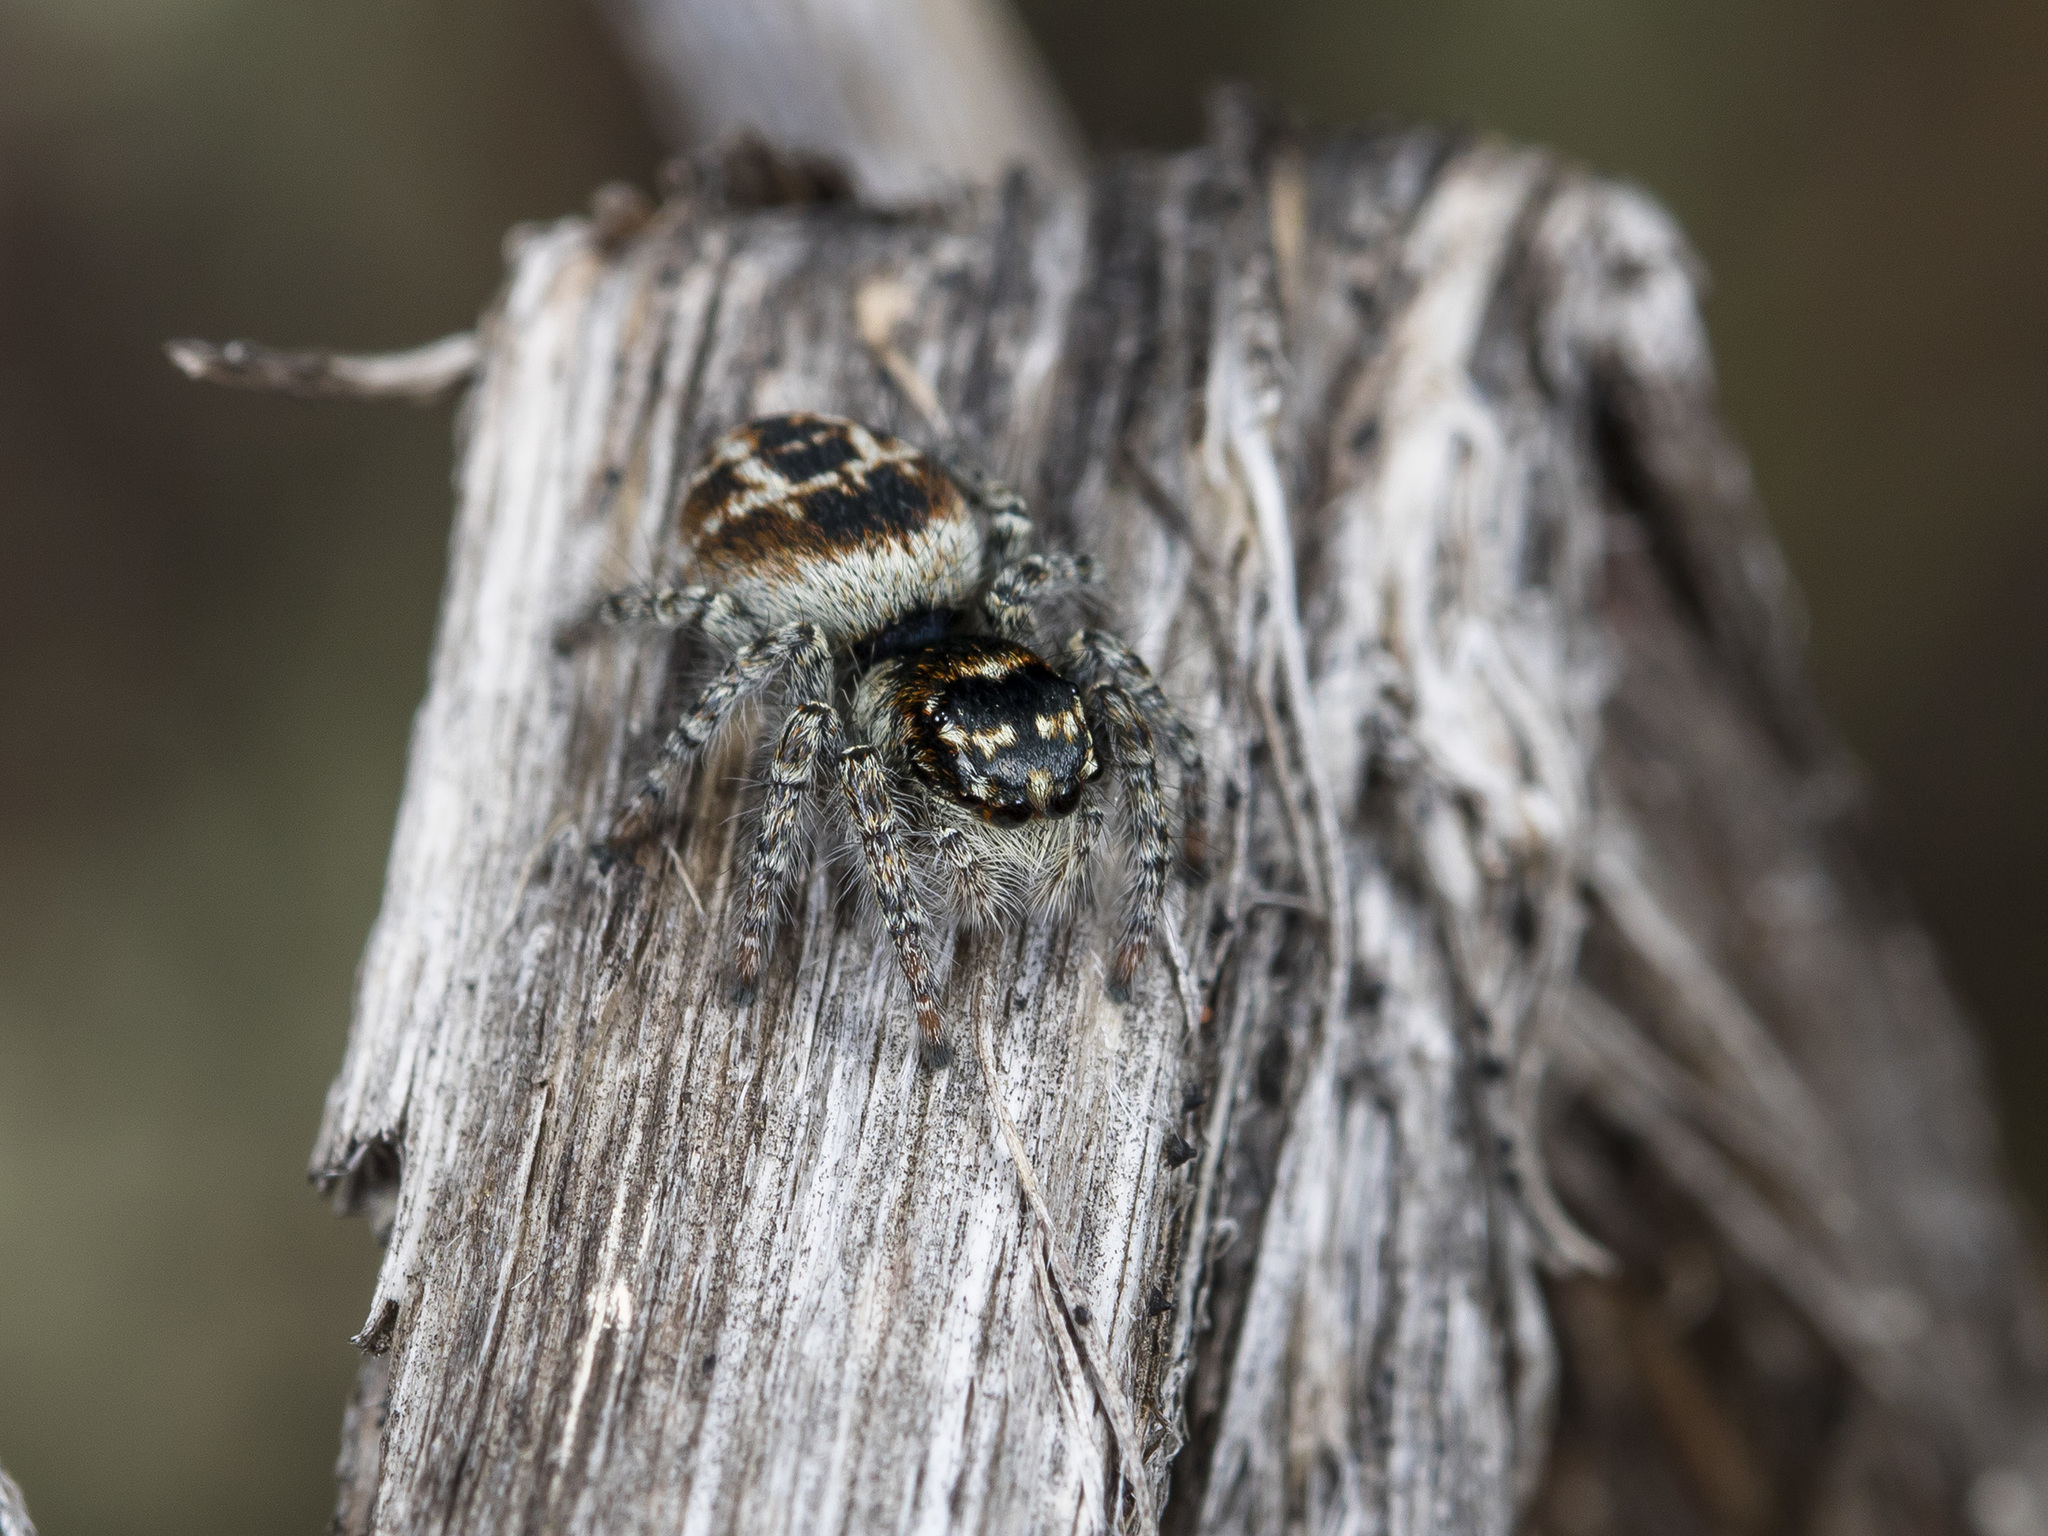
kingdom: Animalia
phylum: Arthropoda
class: Arachnida
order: Araneae
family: Salticidae
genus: Philaeus
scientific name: Philaeus chrysops
